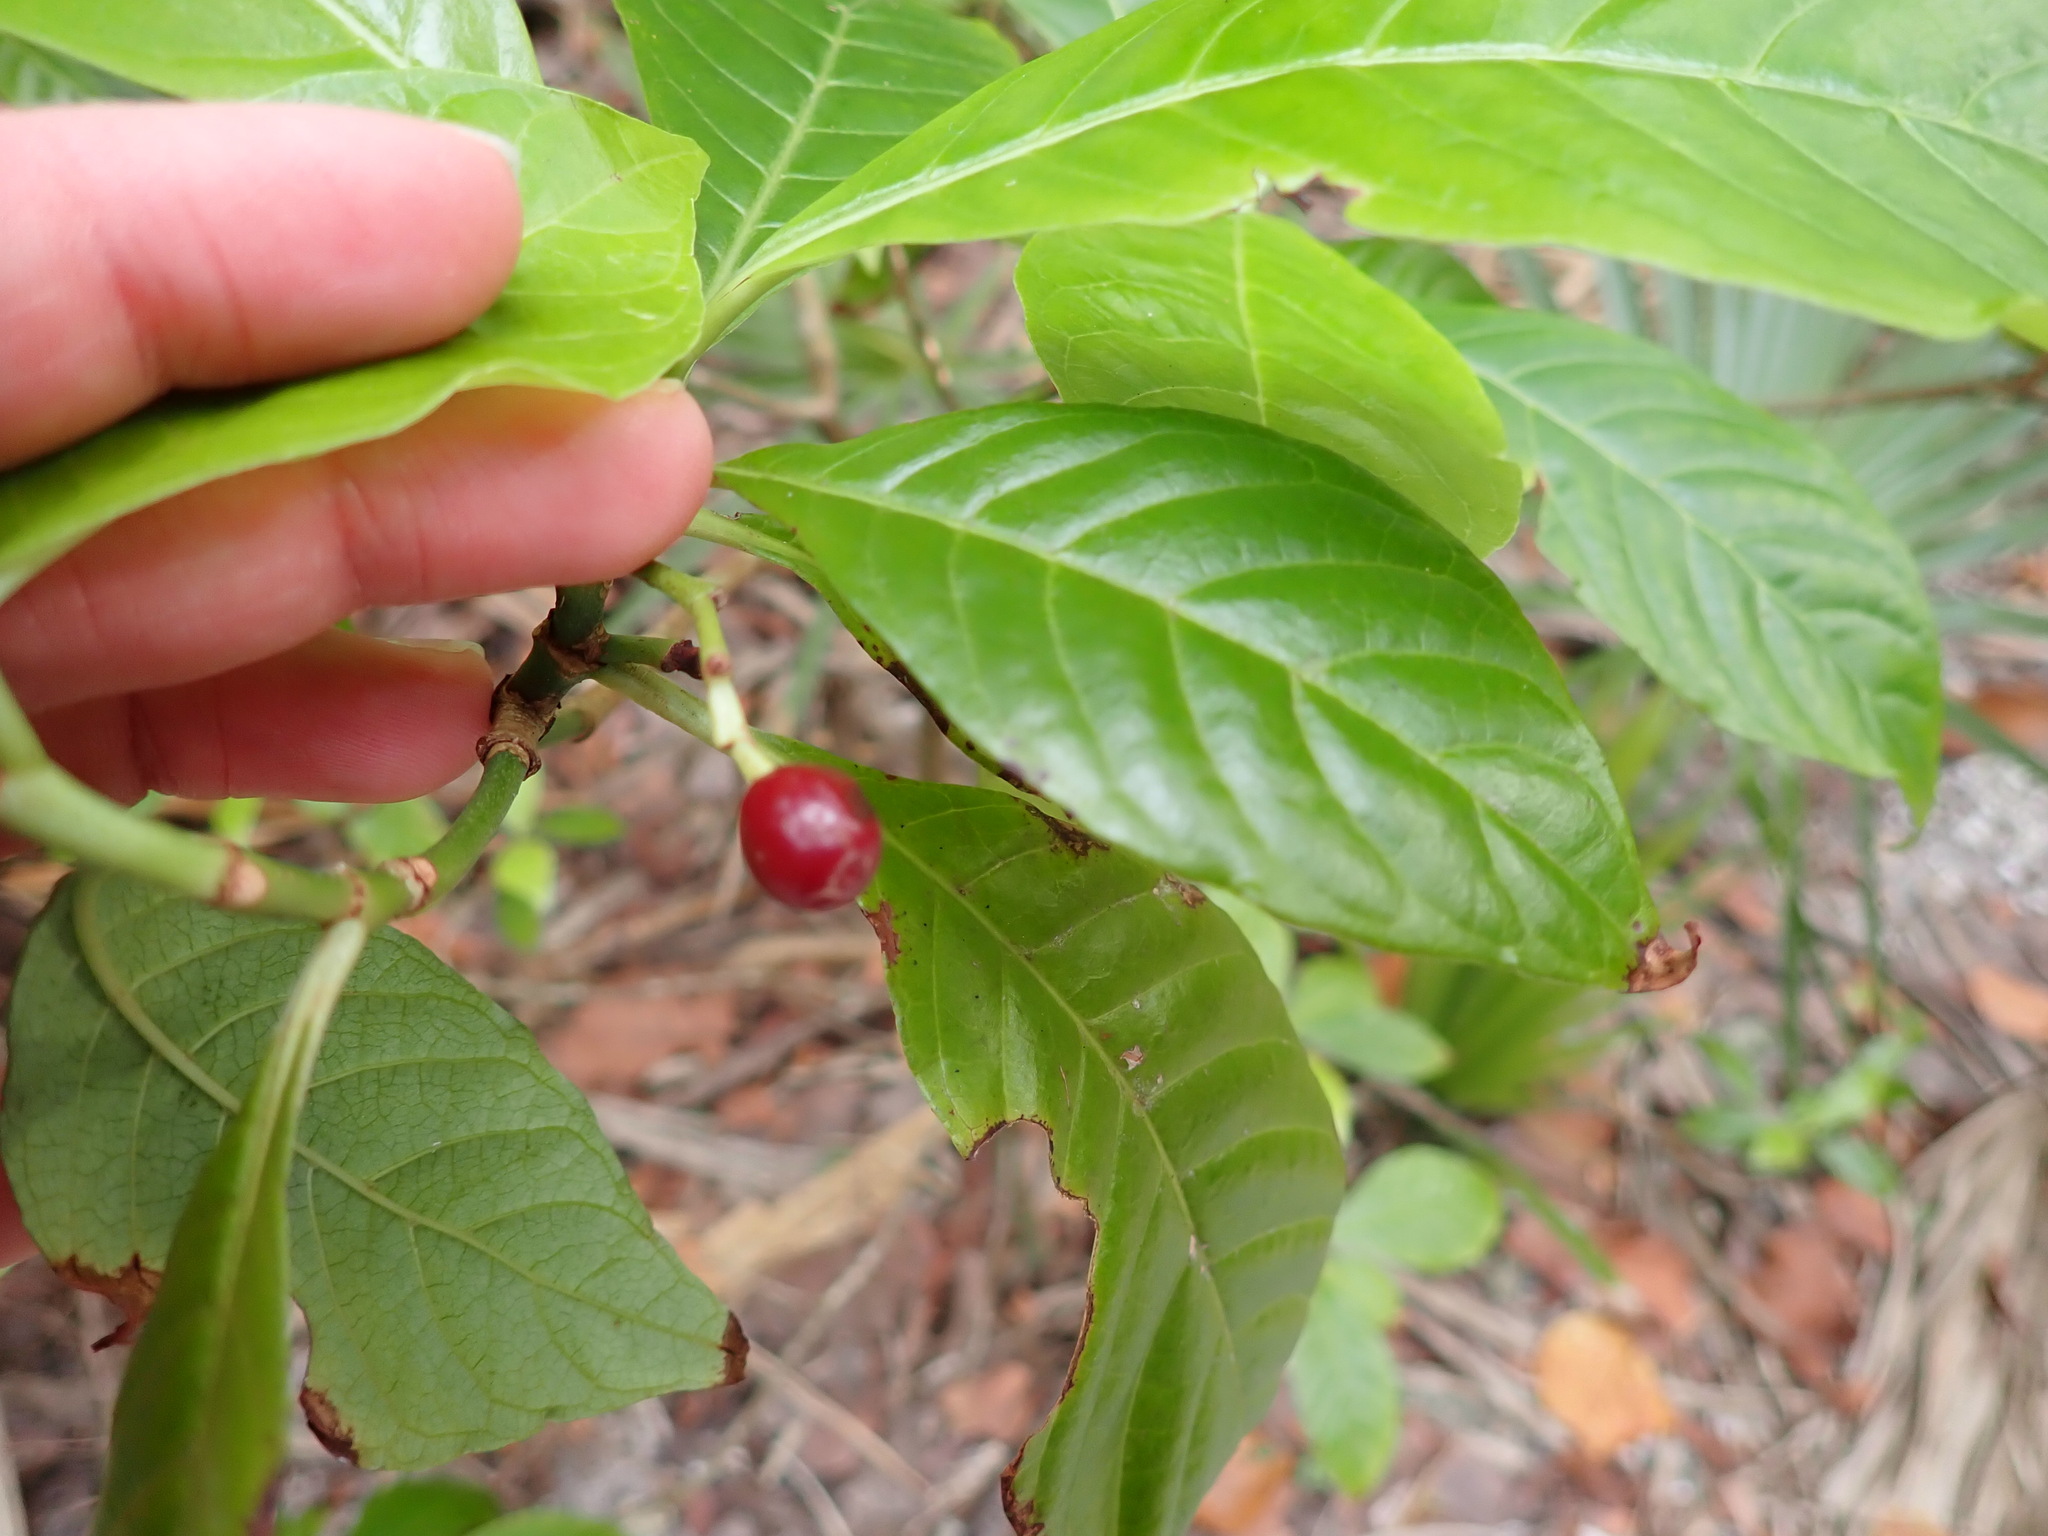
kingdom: Plantae
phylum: Tracheophyta
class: Magnoliopsida
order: Gentianales
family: Rubiaceae
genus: Psychotria
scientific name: Psychotria nervosa
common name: Bastard cankerberry
